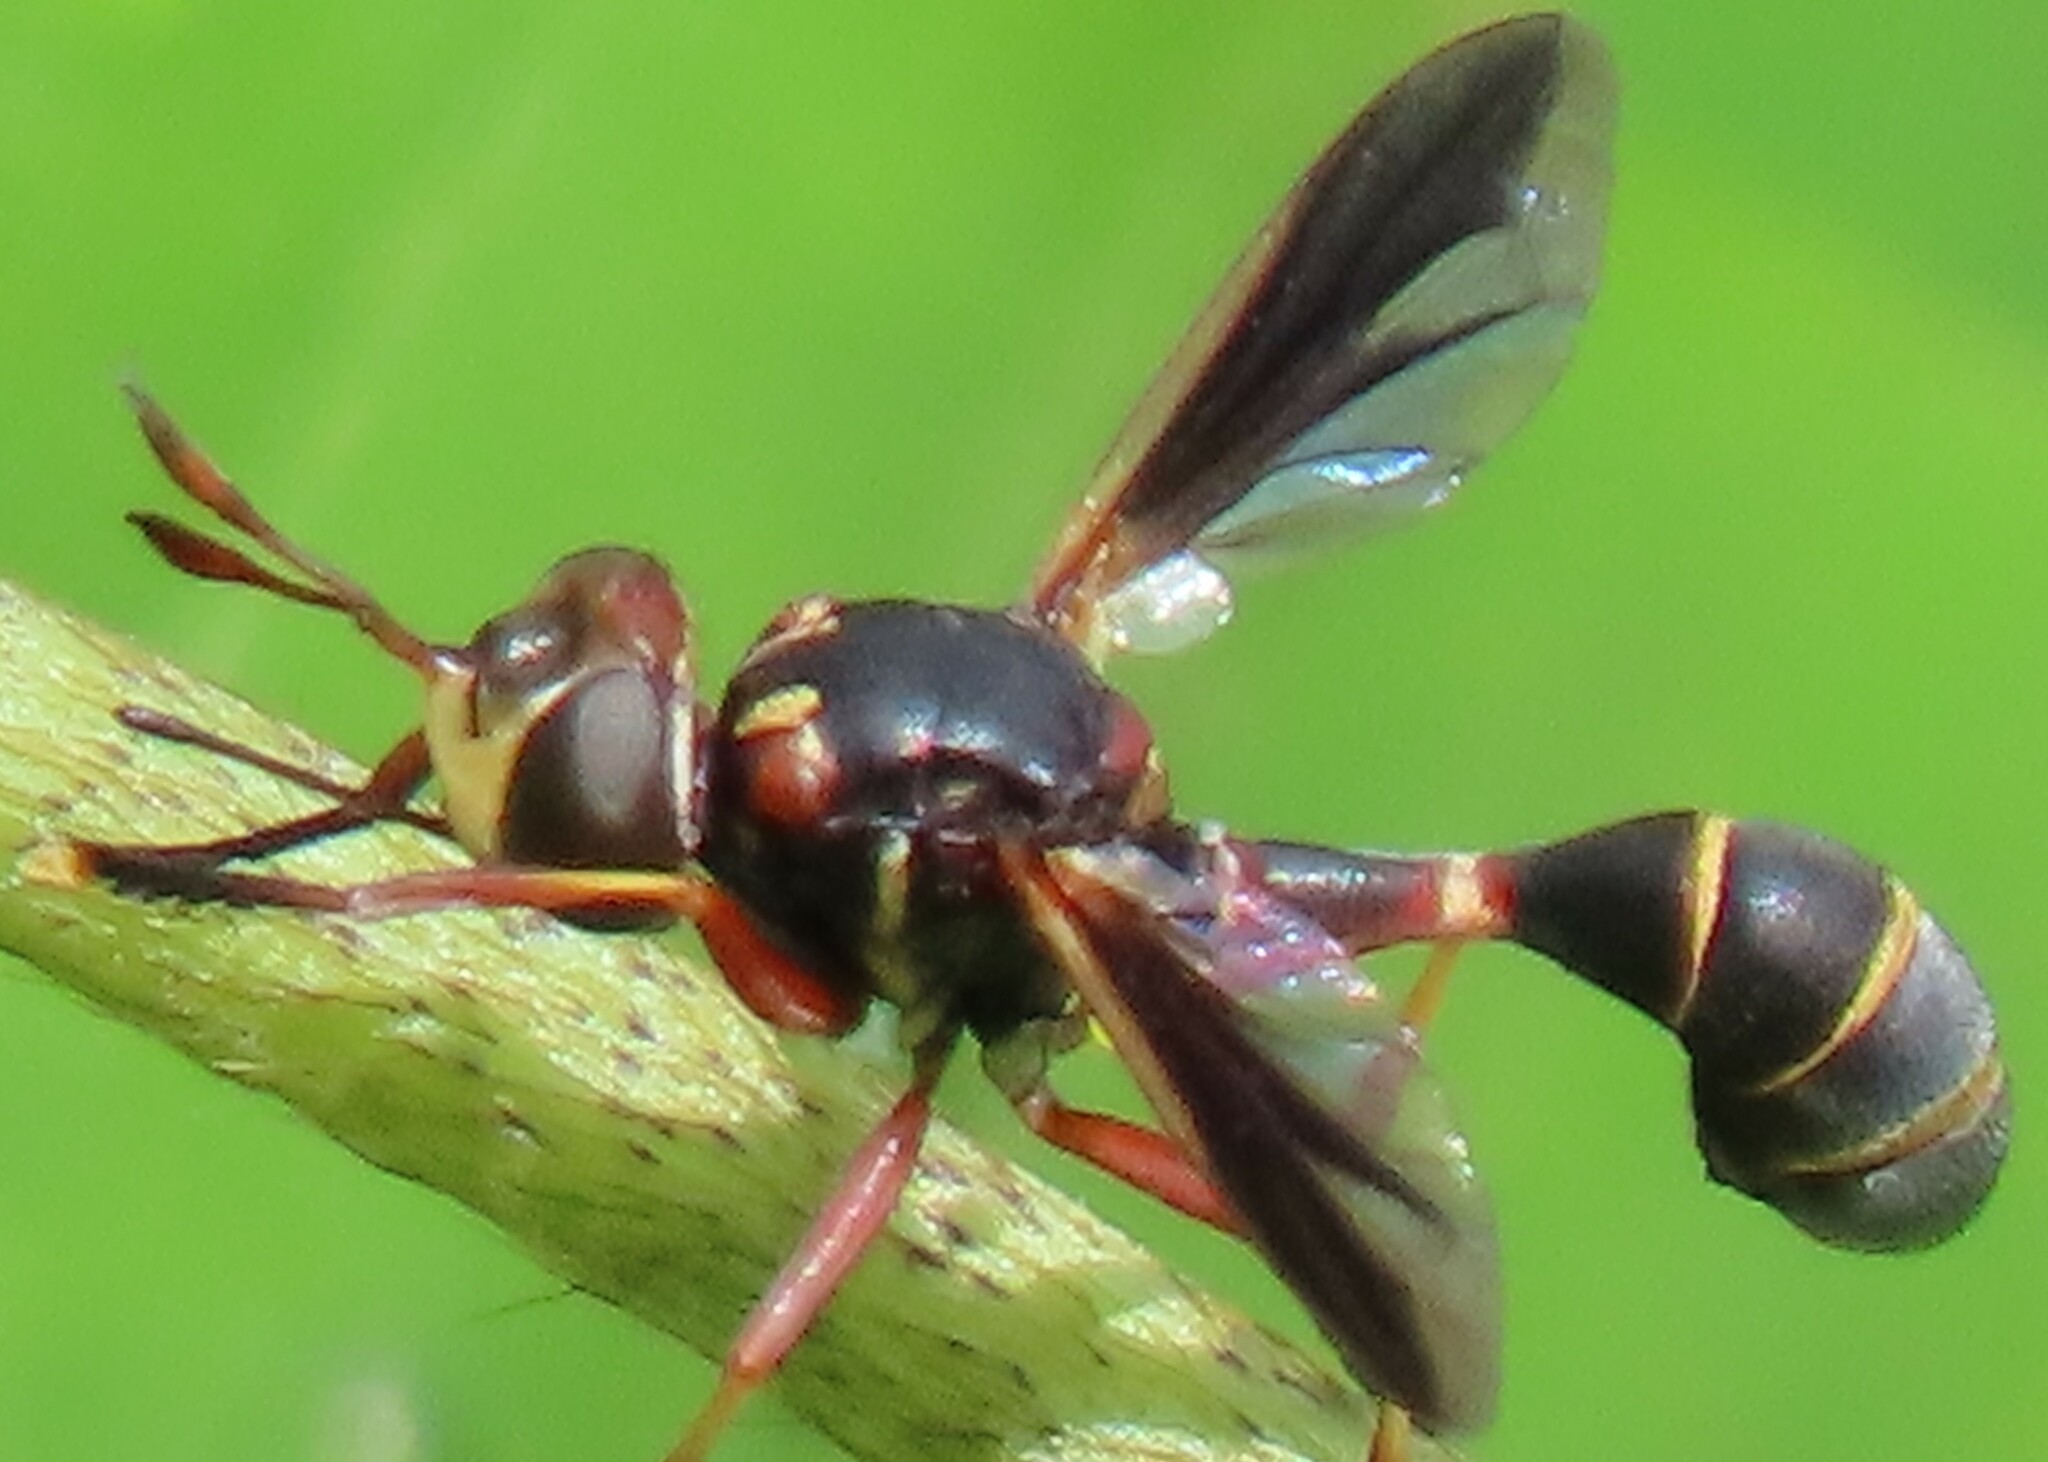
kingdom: Animalia
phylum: Arthropoda
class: Insecta
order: Diptera
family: Conopidae
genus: Physoconops
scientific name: Physoconops excisus
